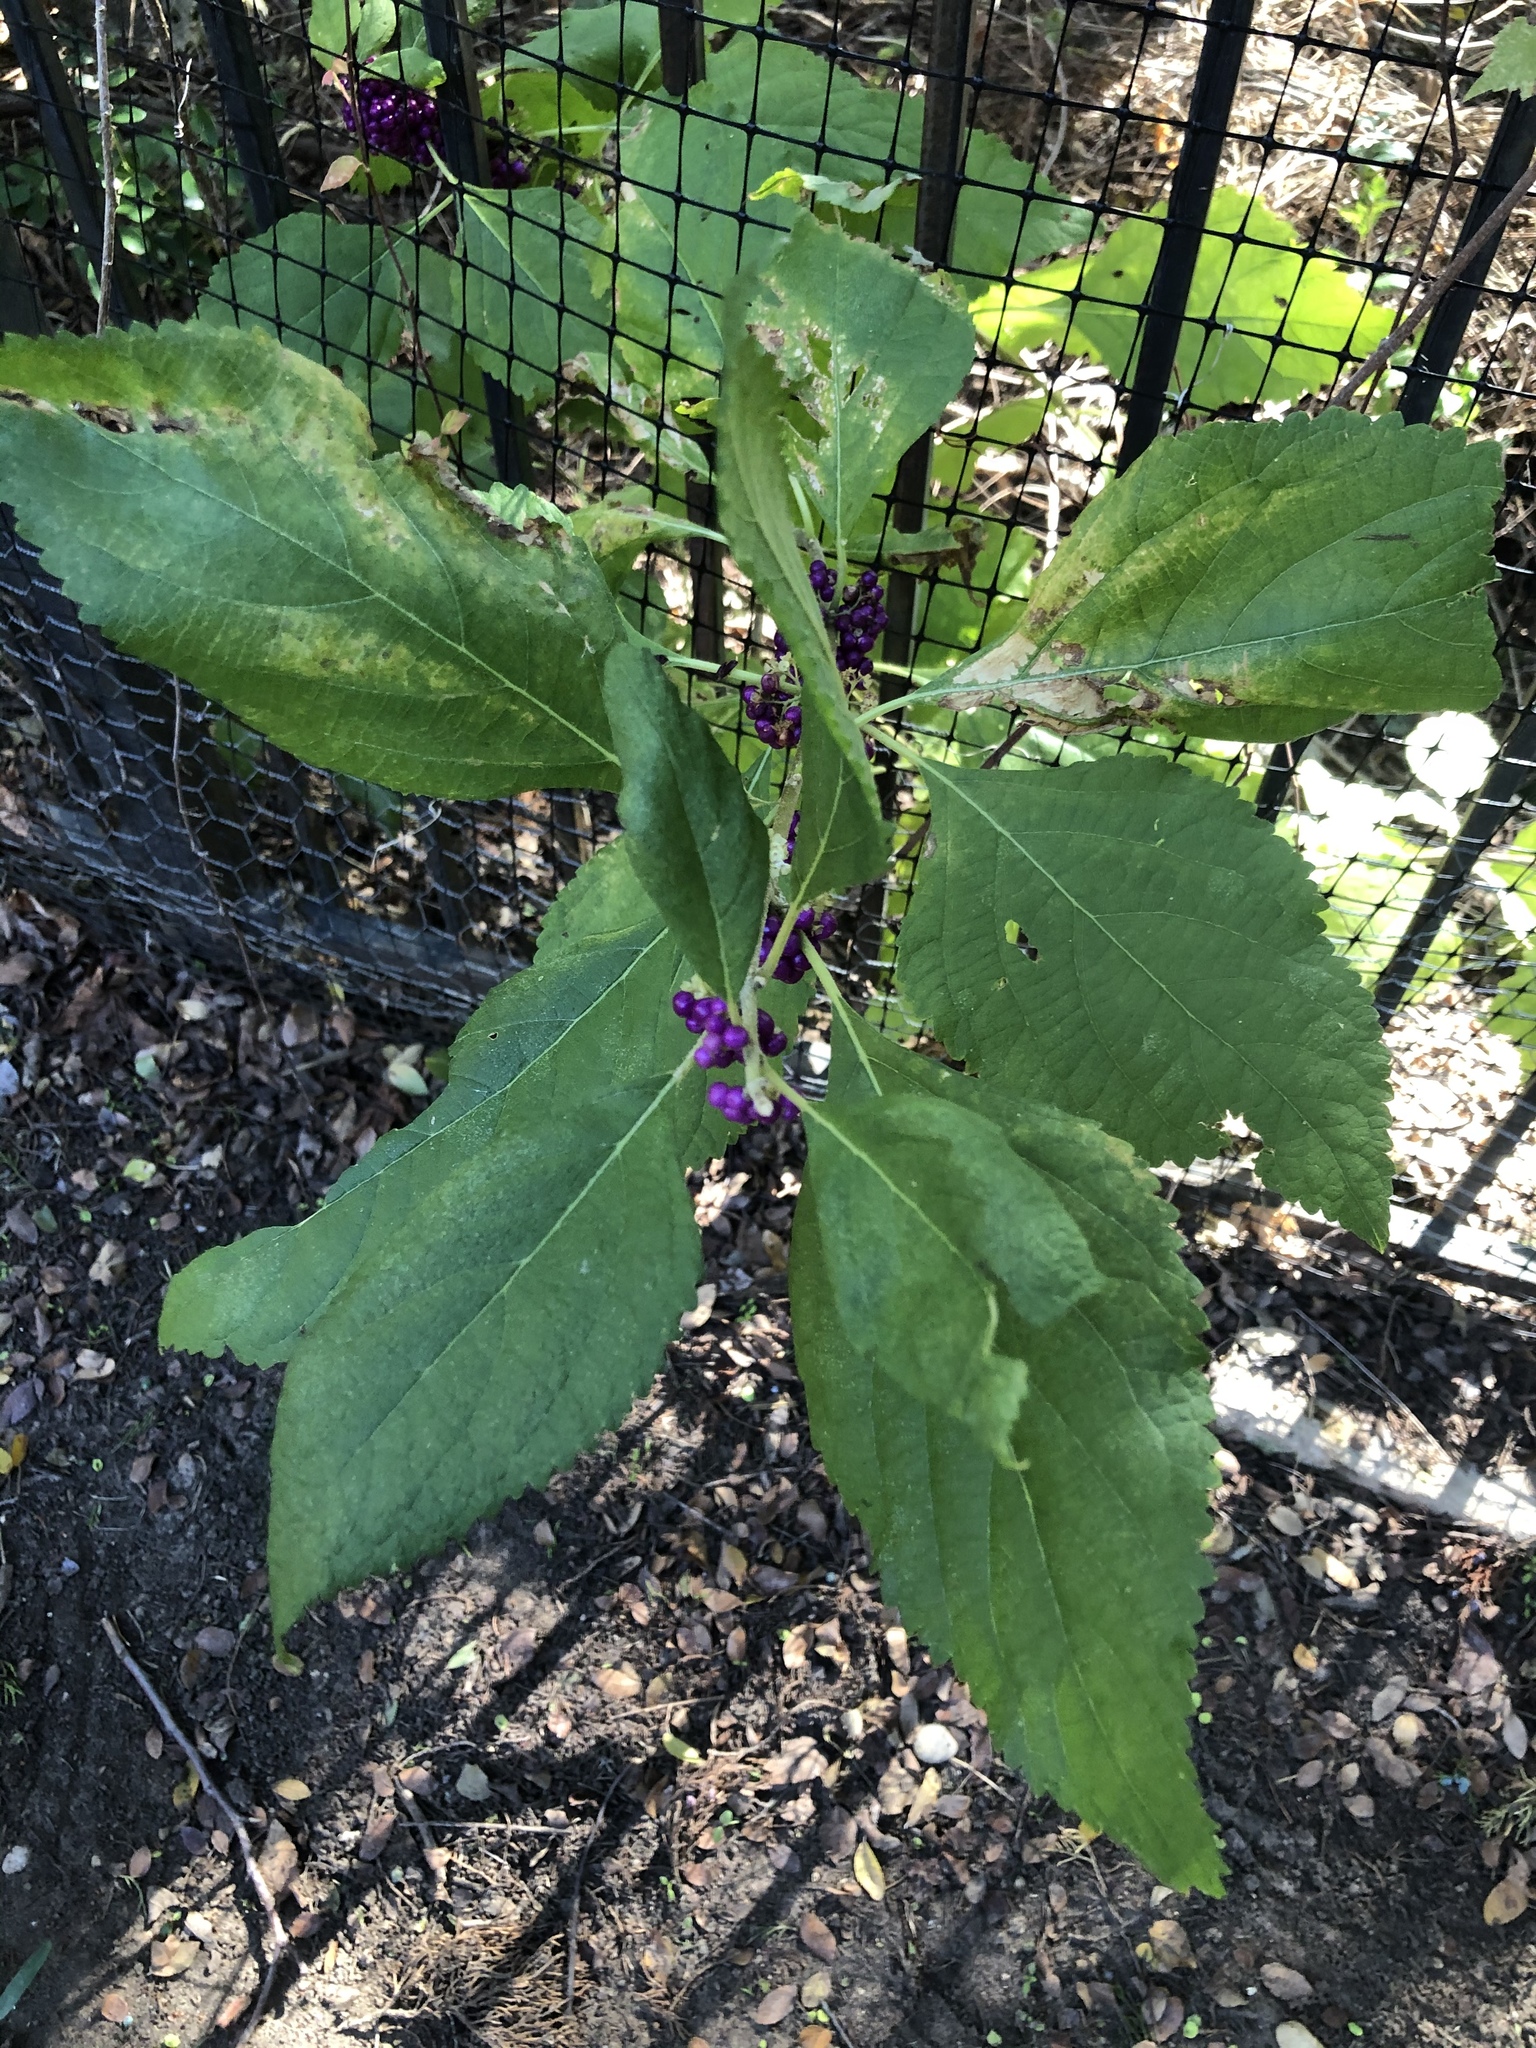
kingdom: Plantae
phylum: Tracheophyta
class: Magnoliopsida
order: Lamiales
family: Lamiaceae
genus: Callicarpa
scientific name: Callicarpa americana
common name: American beautyberry
